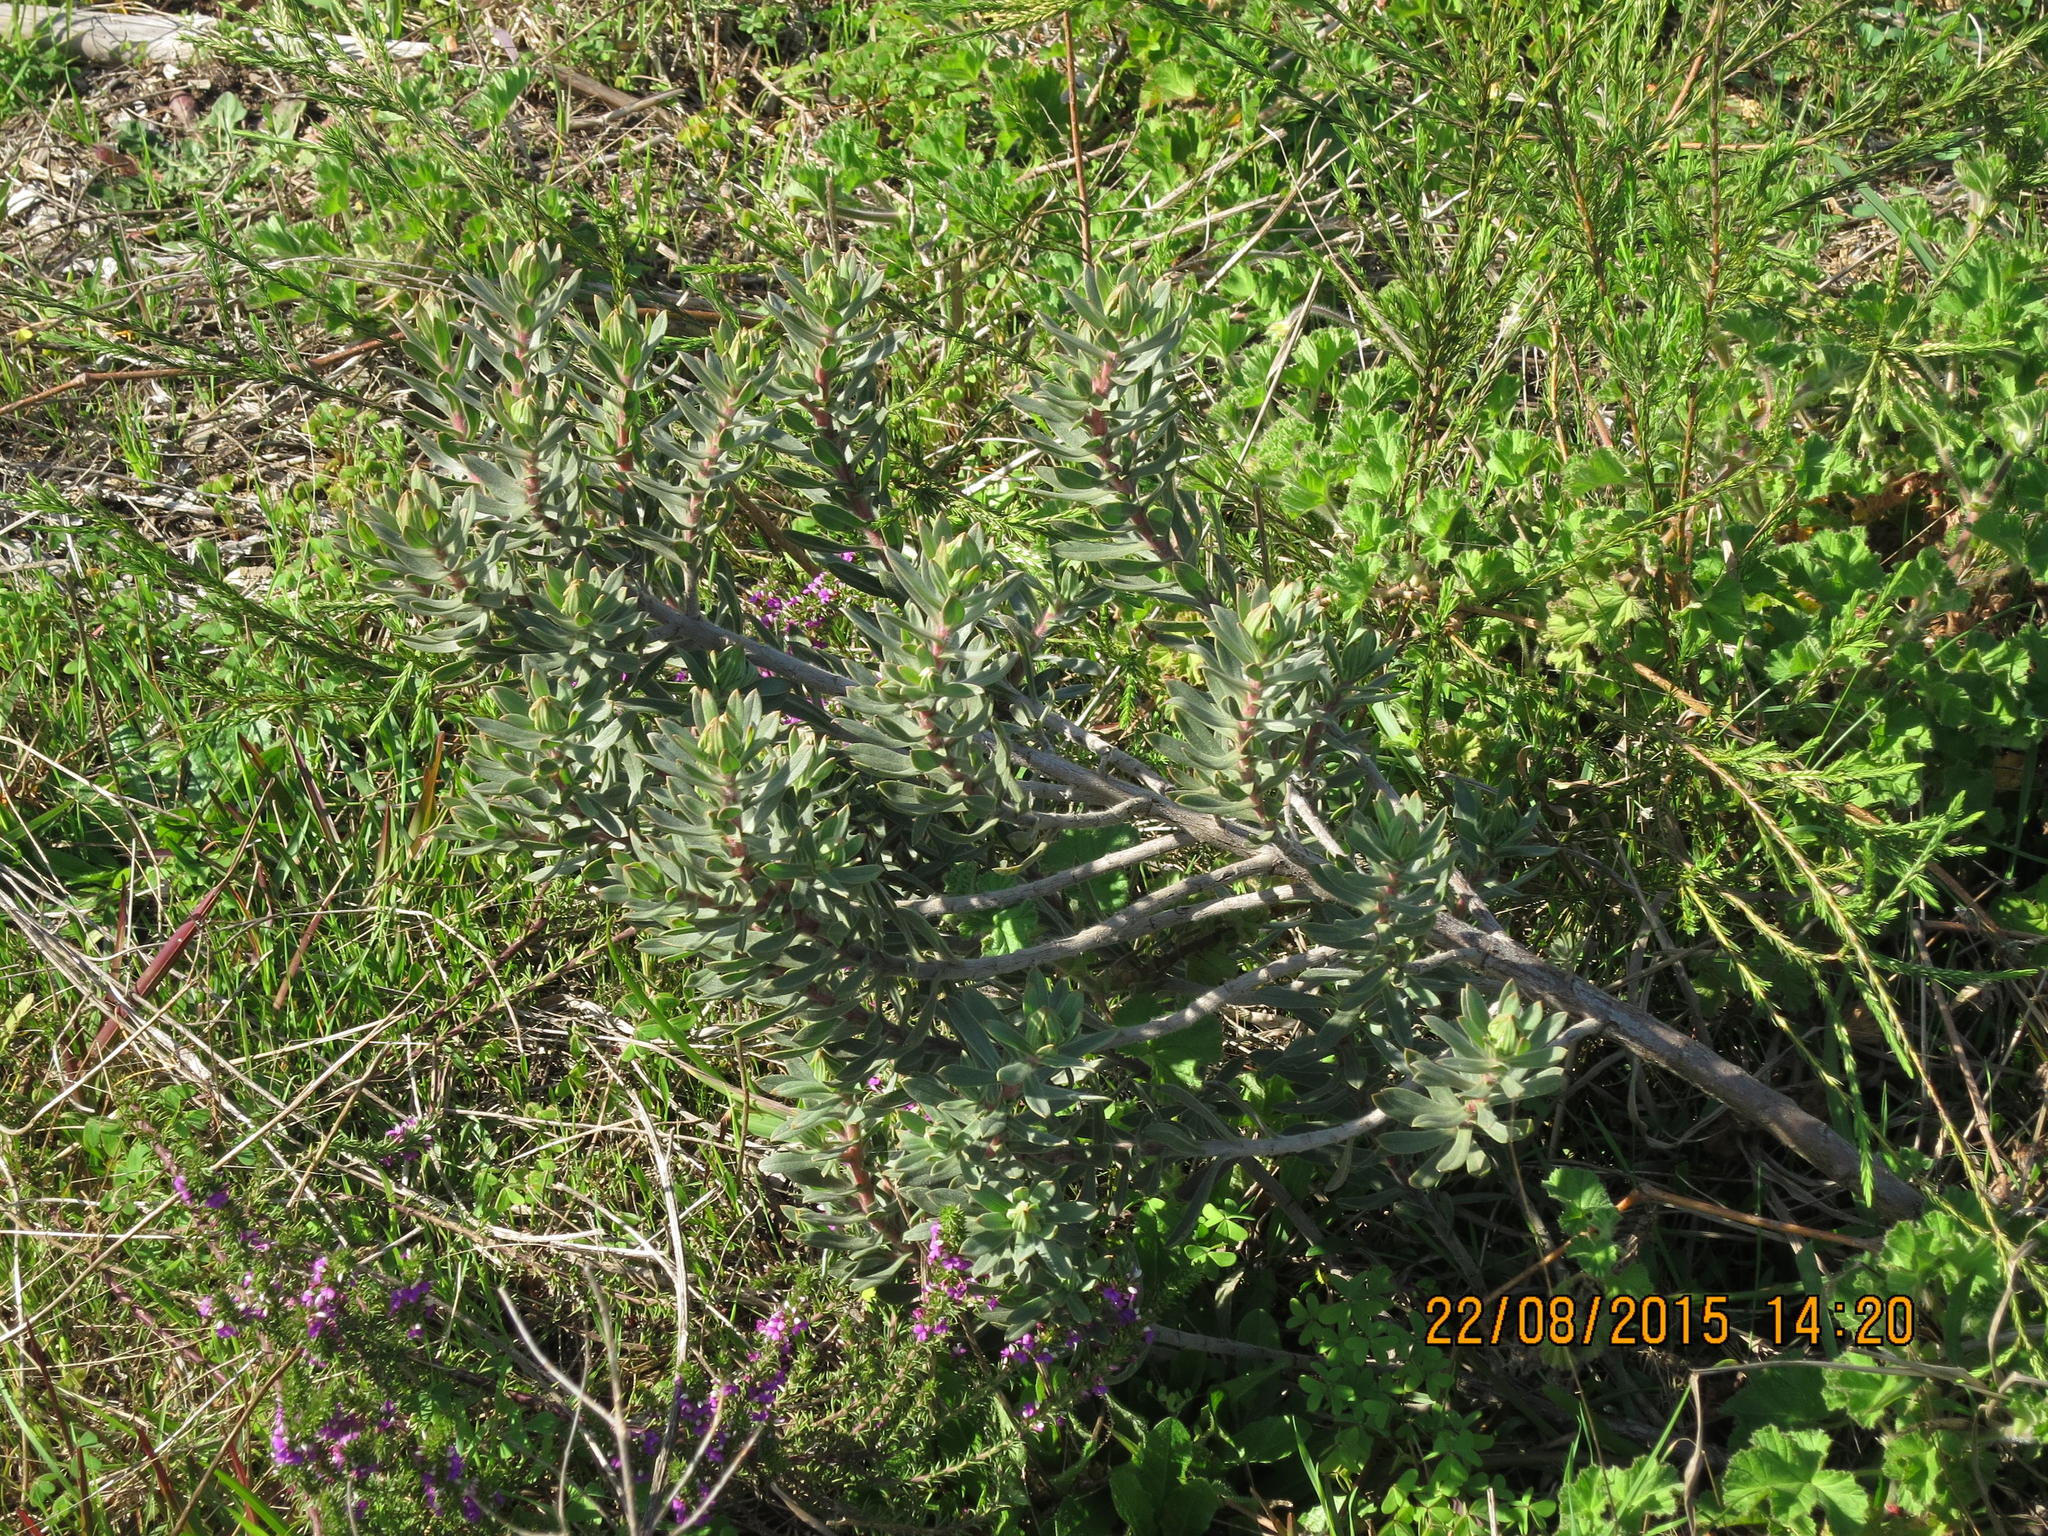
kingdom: Plantae
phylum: Tracheophyta
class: Magnoliopsida
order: Boraginales
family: Boraginaceae
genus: Lobostemon
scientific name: Lobostemon fruticosus
